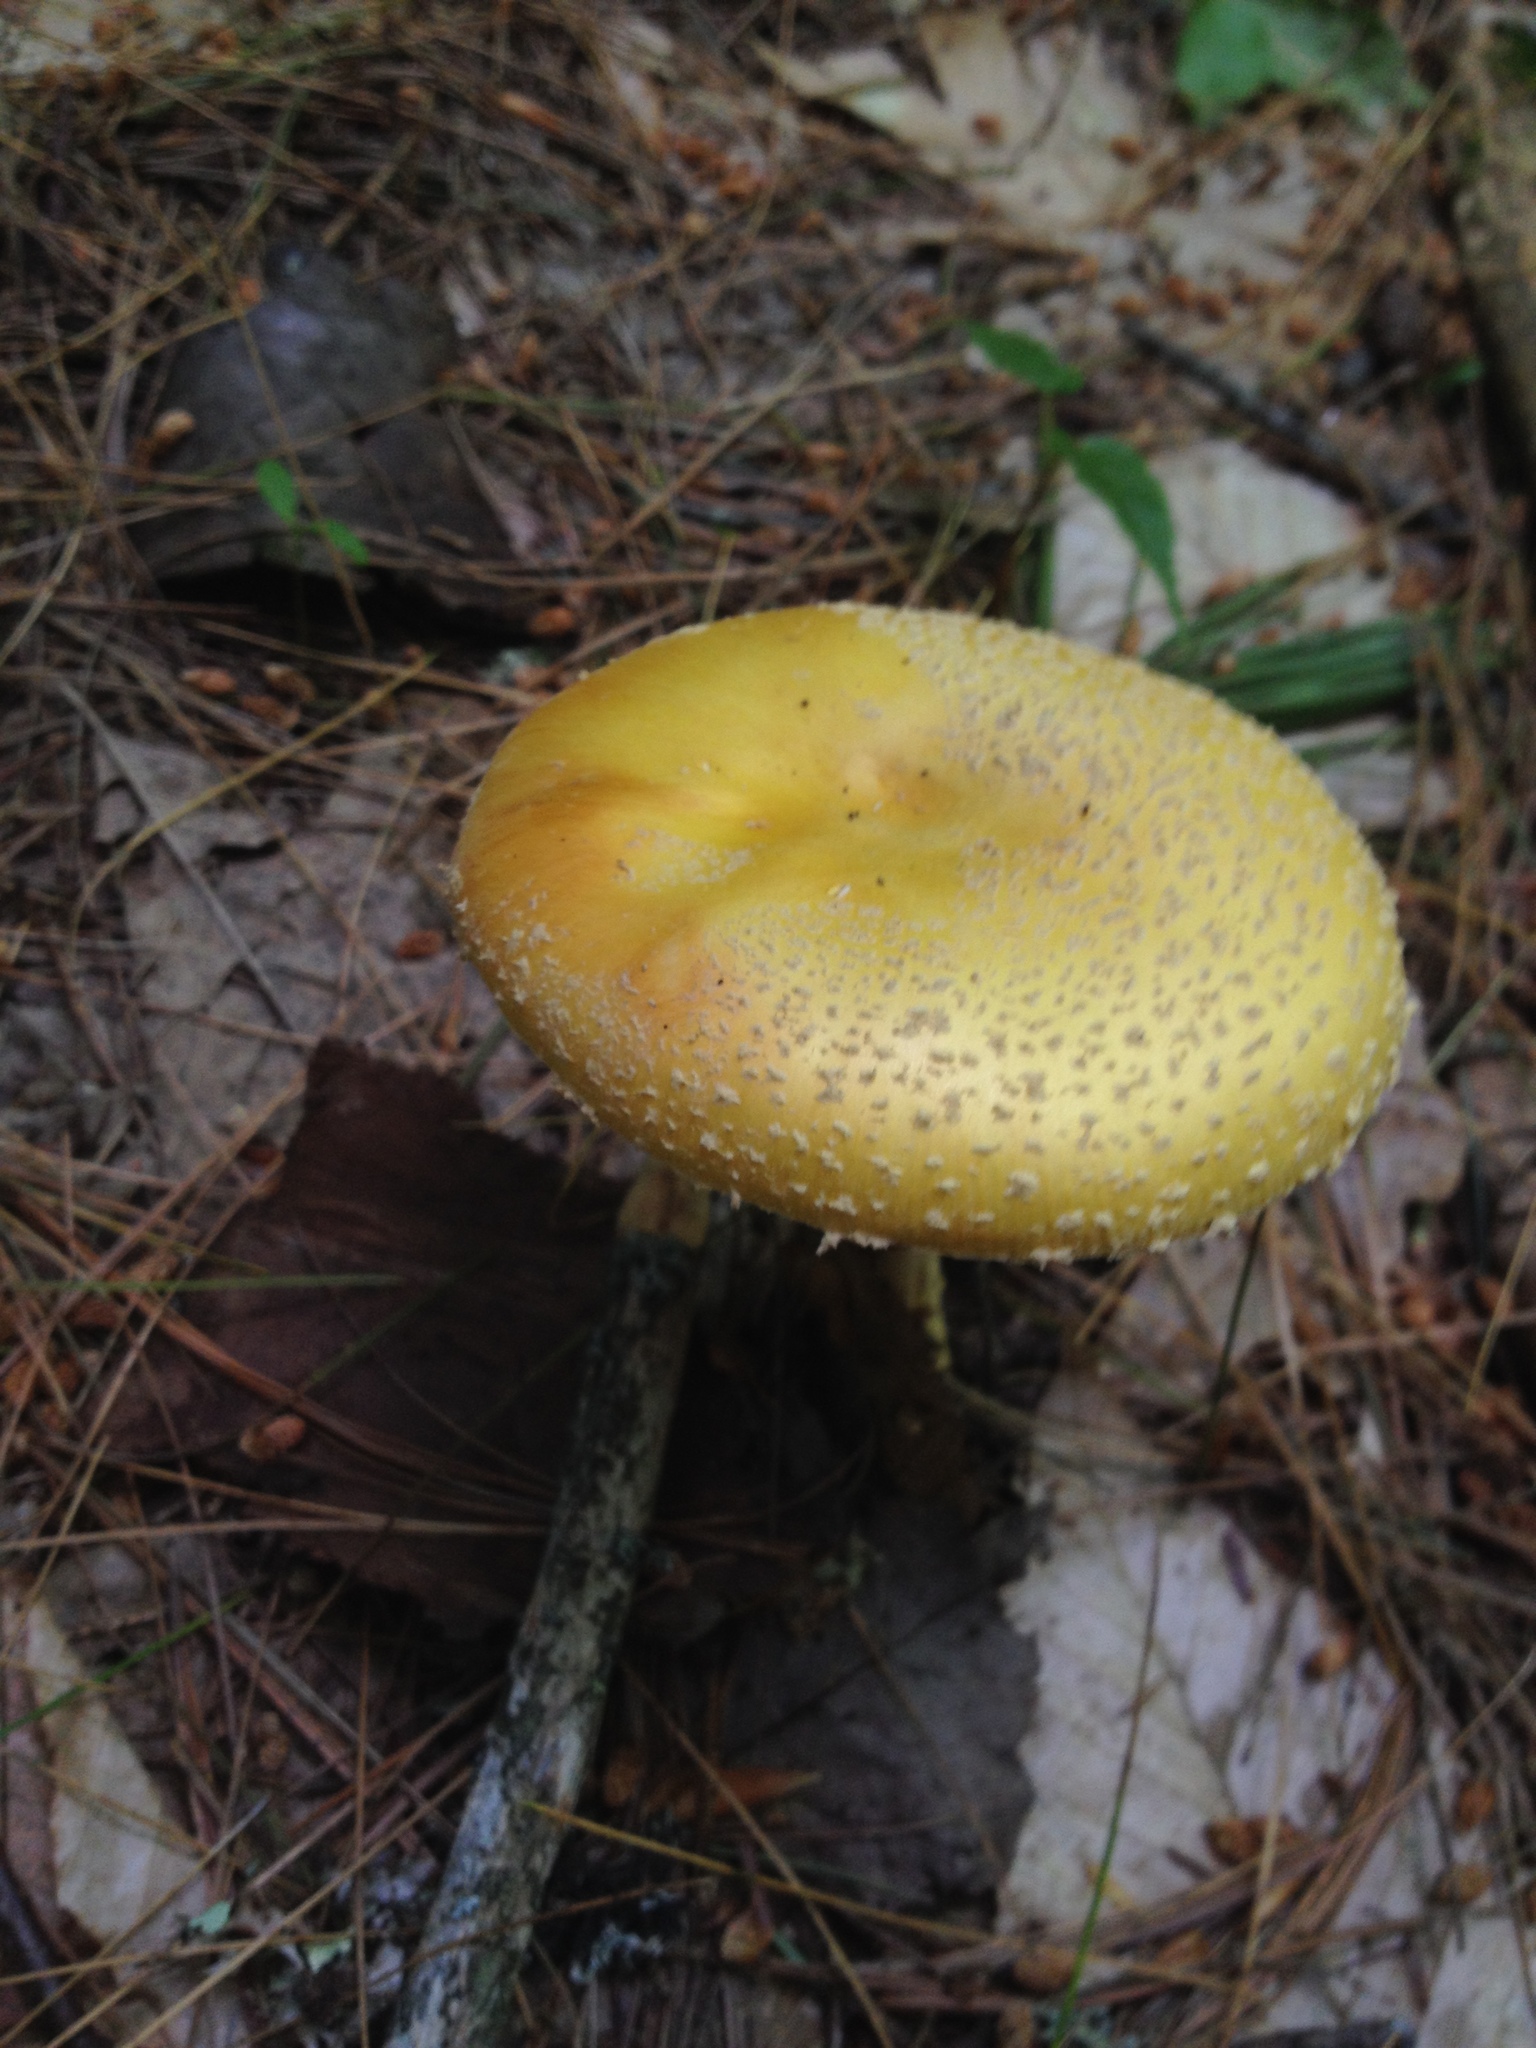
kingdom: Fungi
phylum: Basidiomycota
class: Agaricomycetes
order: Agaricales
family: Amanitaceae
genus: Amanita
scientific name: Amanita muscaria
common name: Fly agaric
